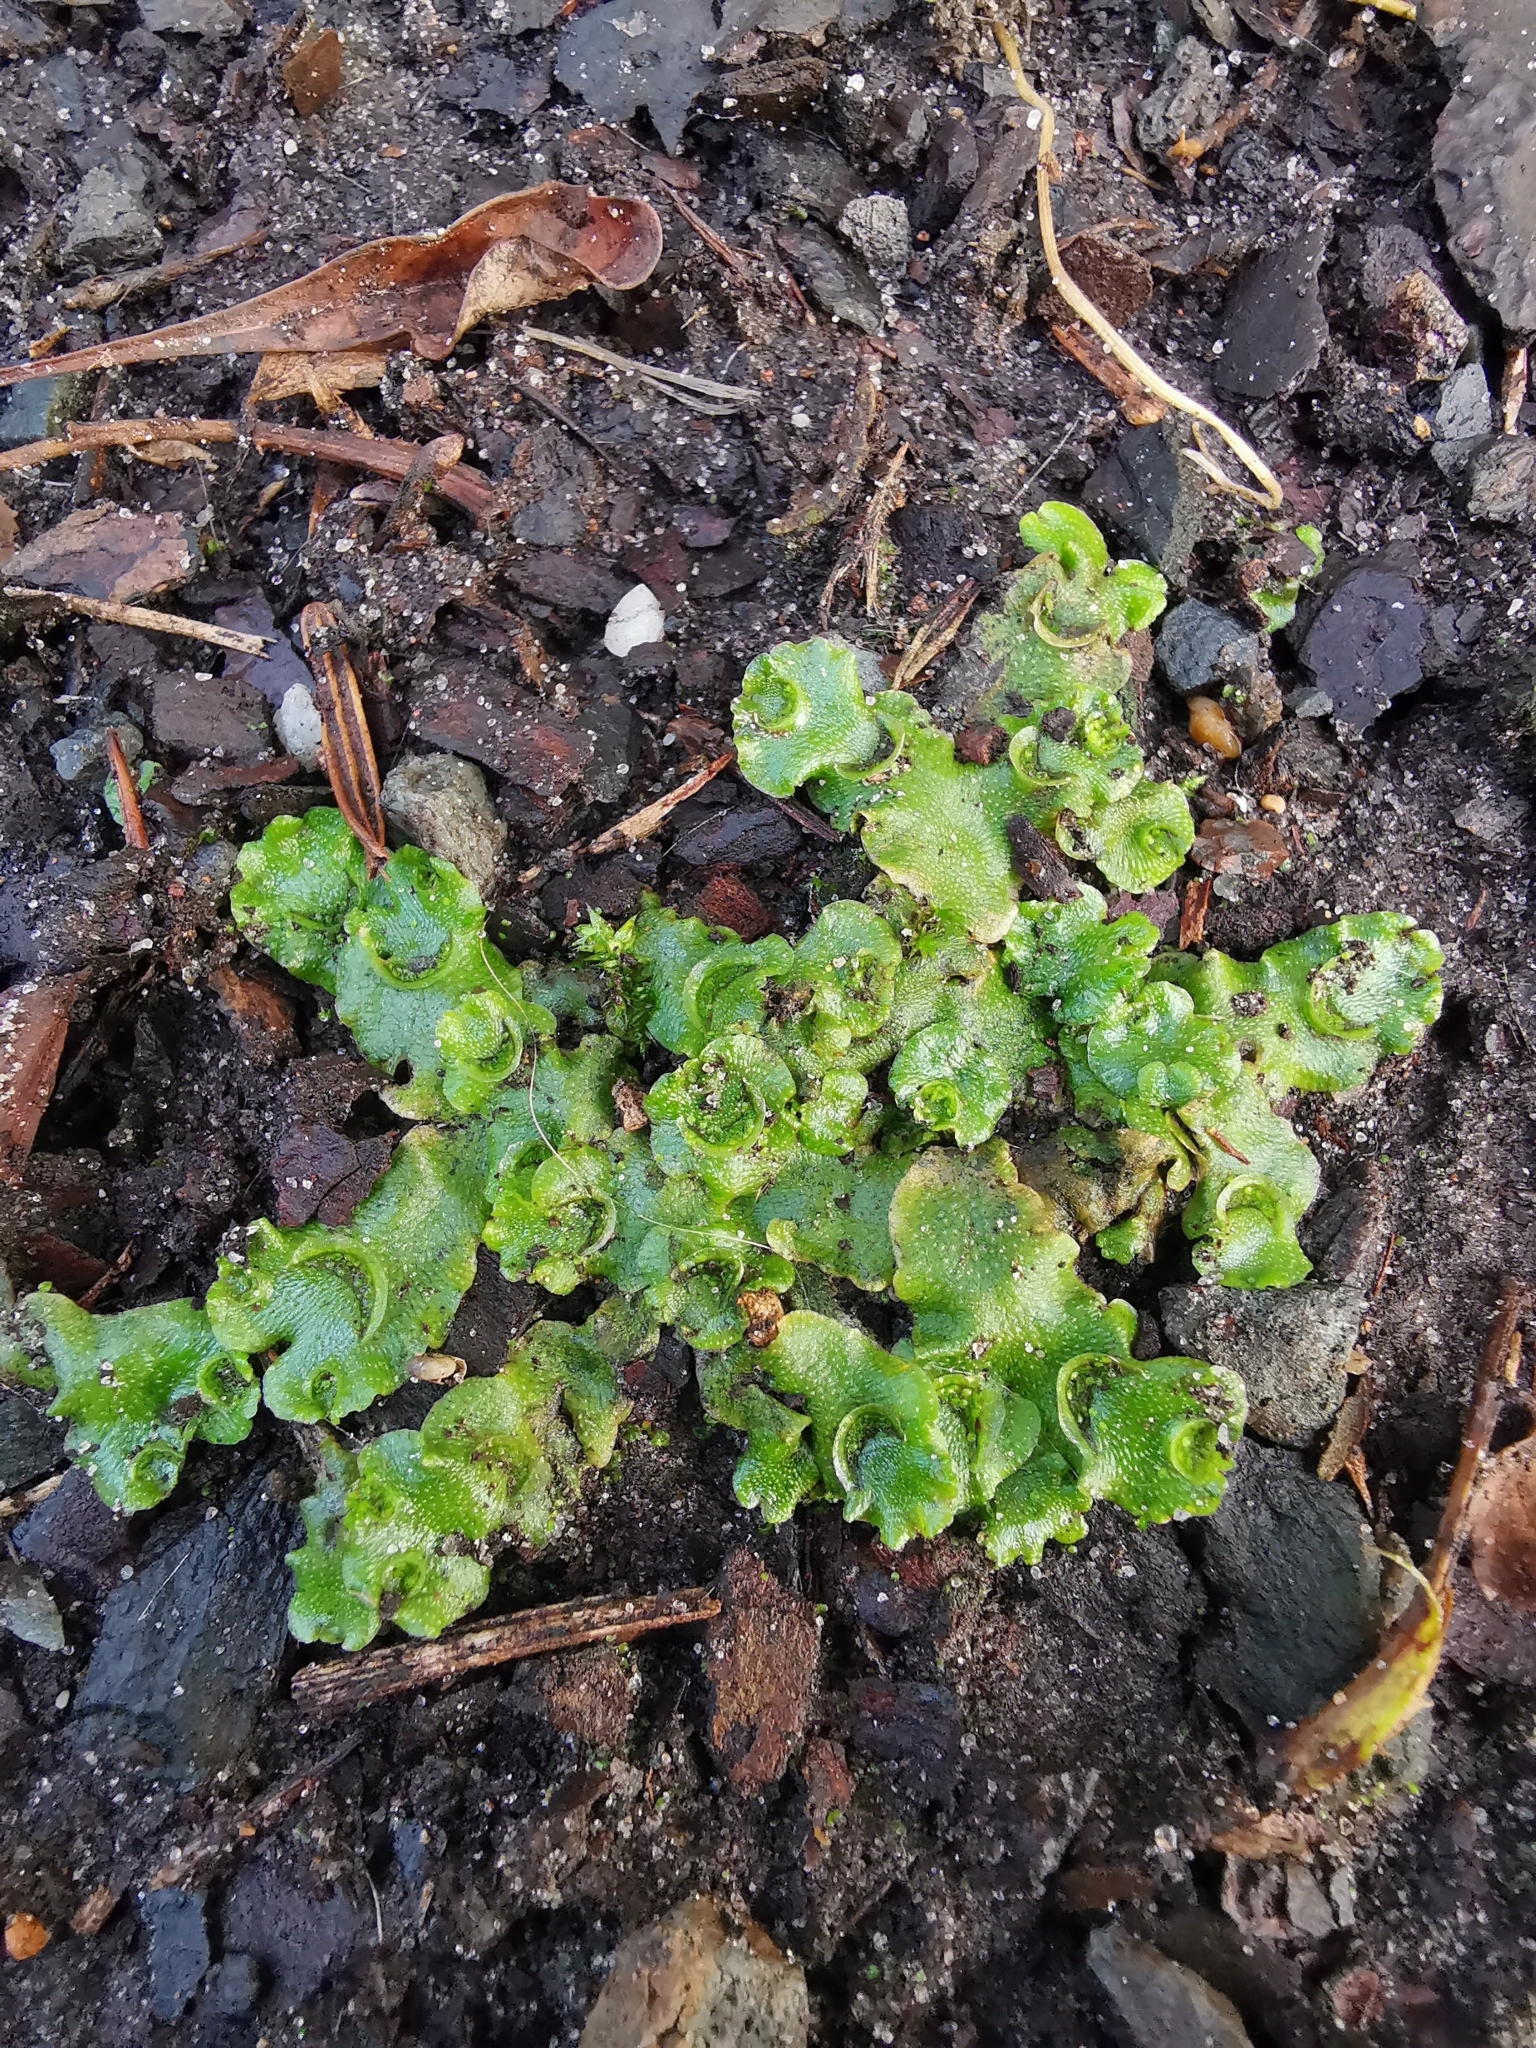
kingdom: Plantae
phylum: Marchantiophyta
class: Marchantiopsida
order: Lunulariales
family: Lunulariaceae
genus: Lunularia
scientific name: Lunularia cruciata
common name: Crescent-cup liverwort
